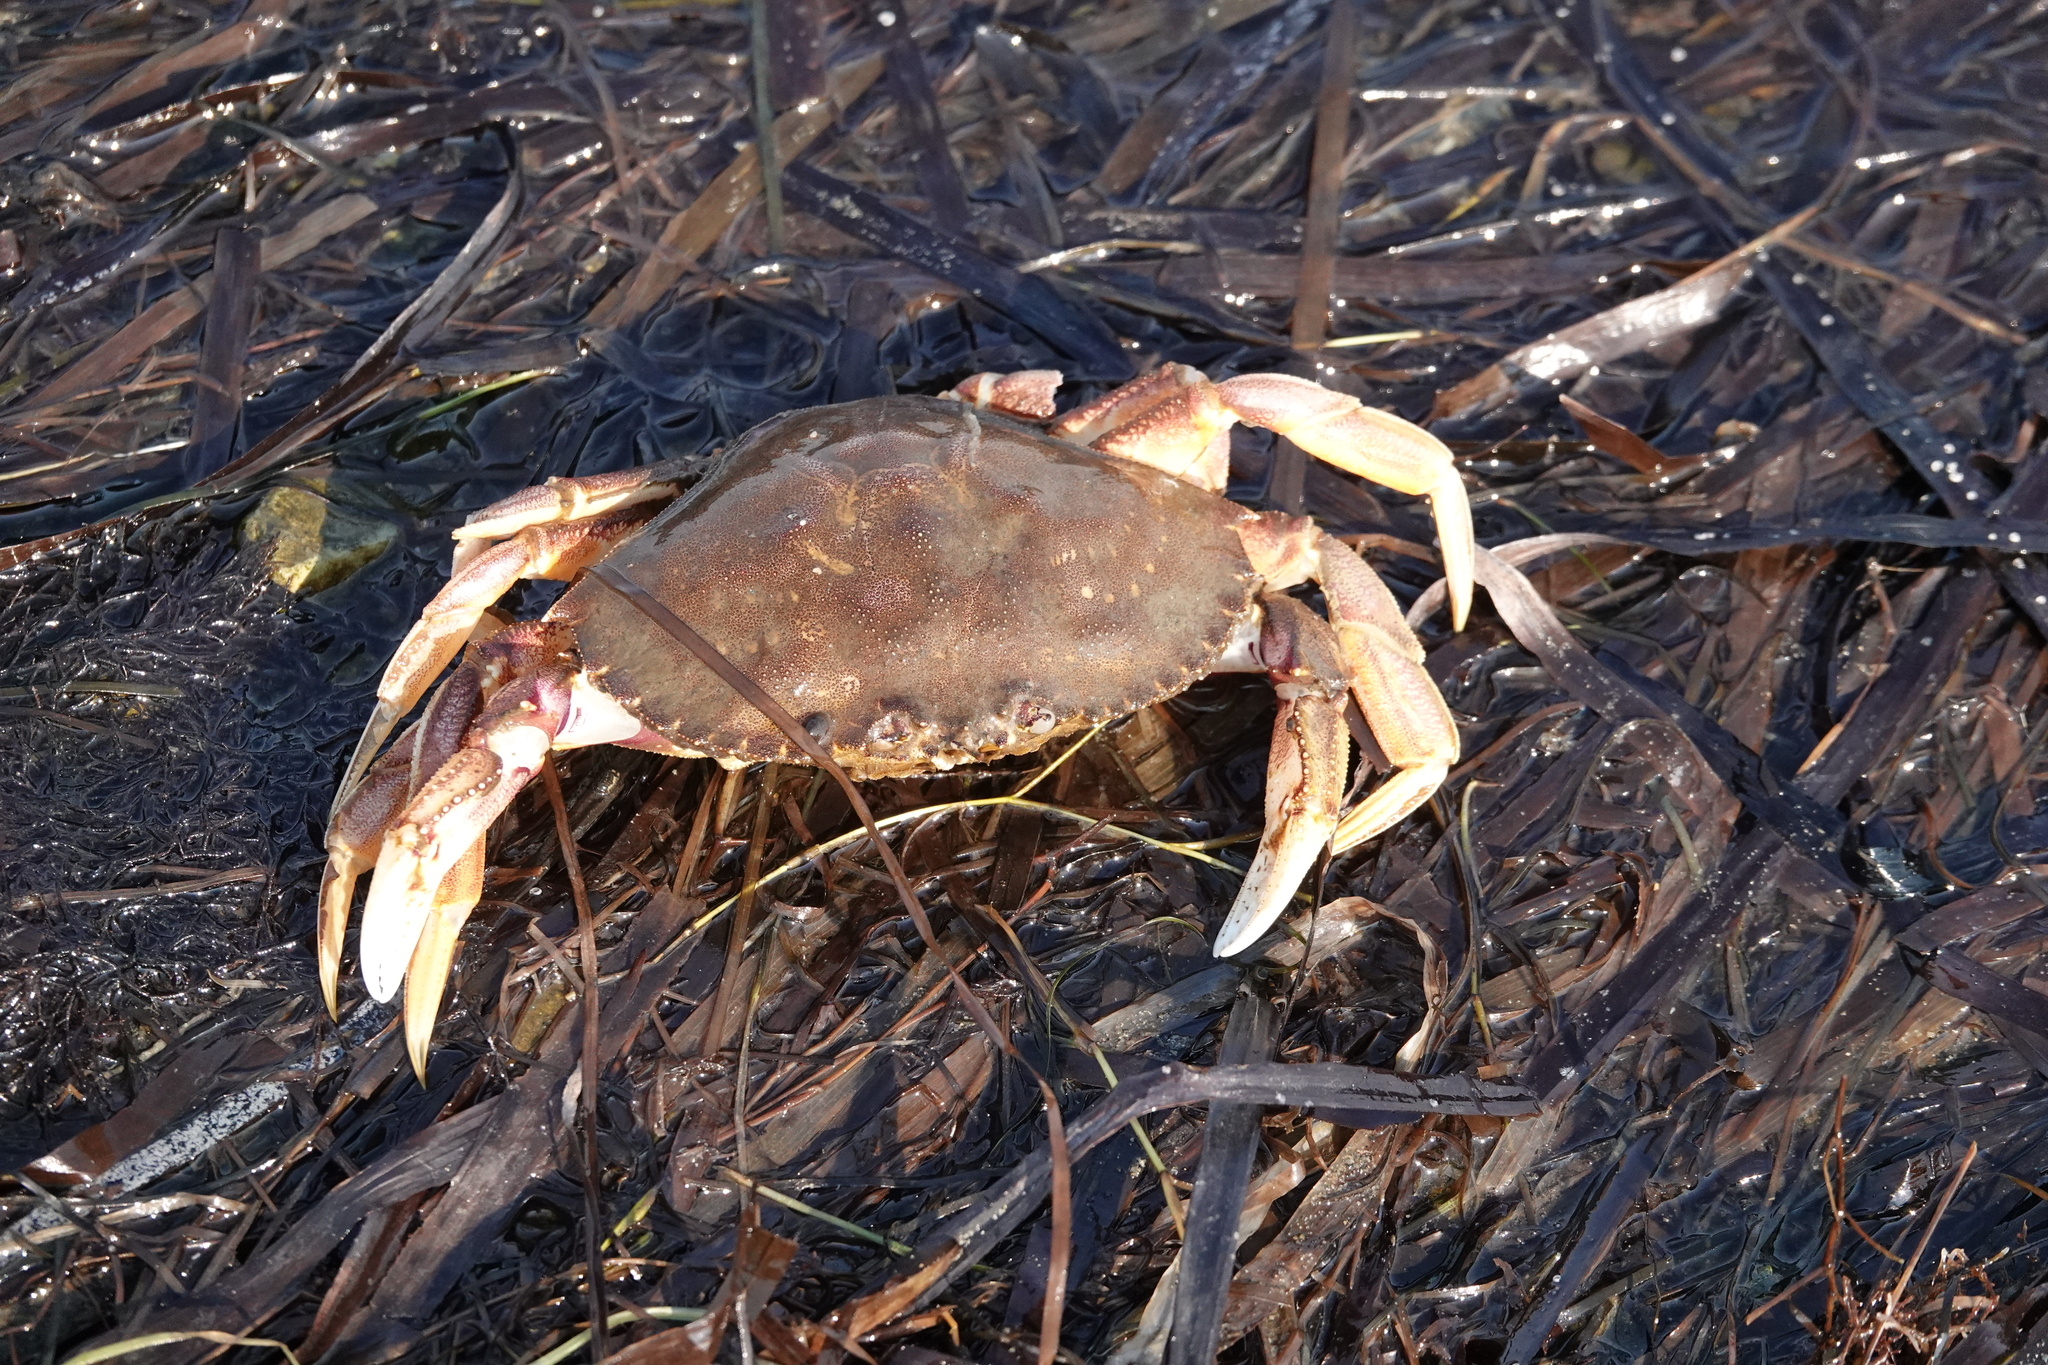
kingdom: Animalia
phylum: Arthropoda
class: Malacostraca
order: Decapoda
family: Cancridae
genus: Metacarcinus
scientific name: Metacarcinus magister
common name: Californian crab
